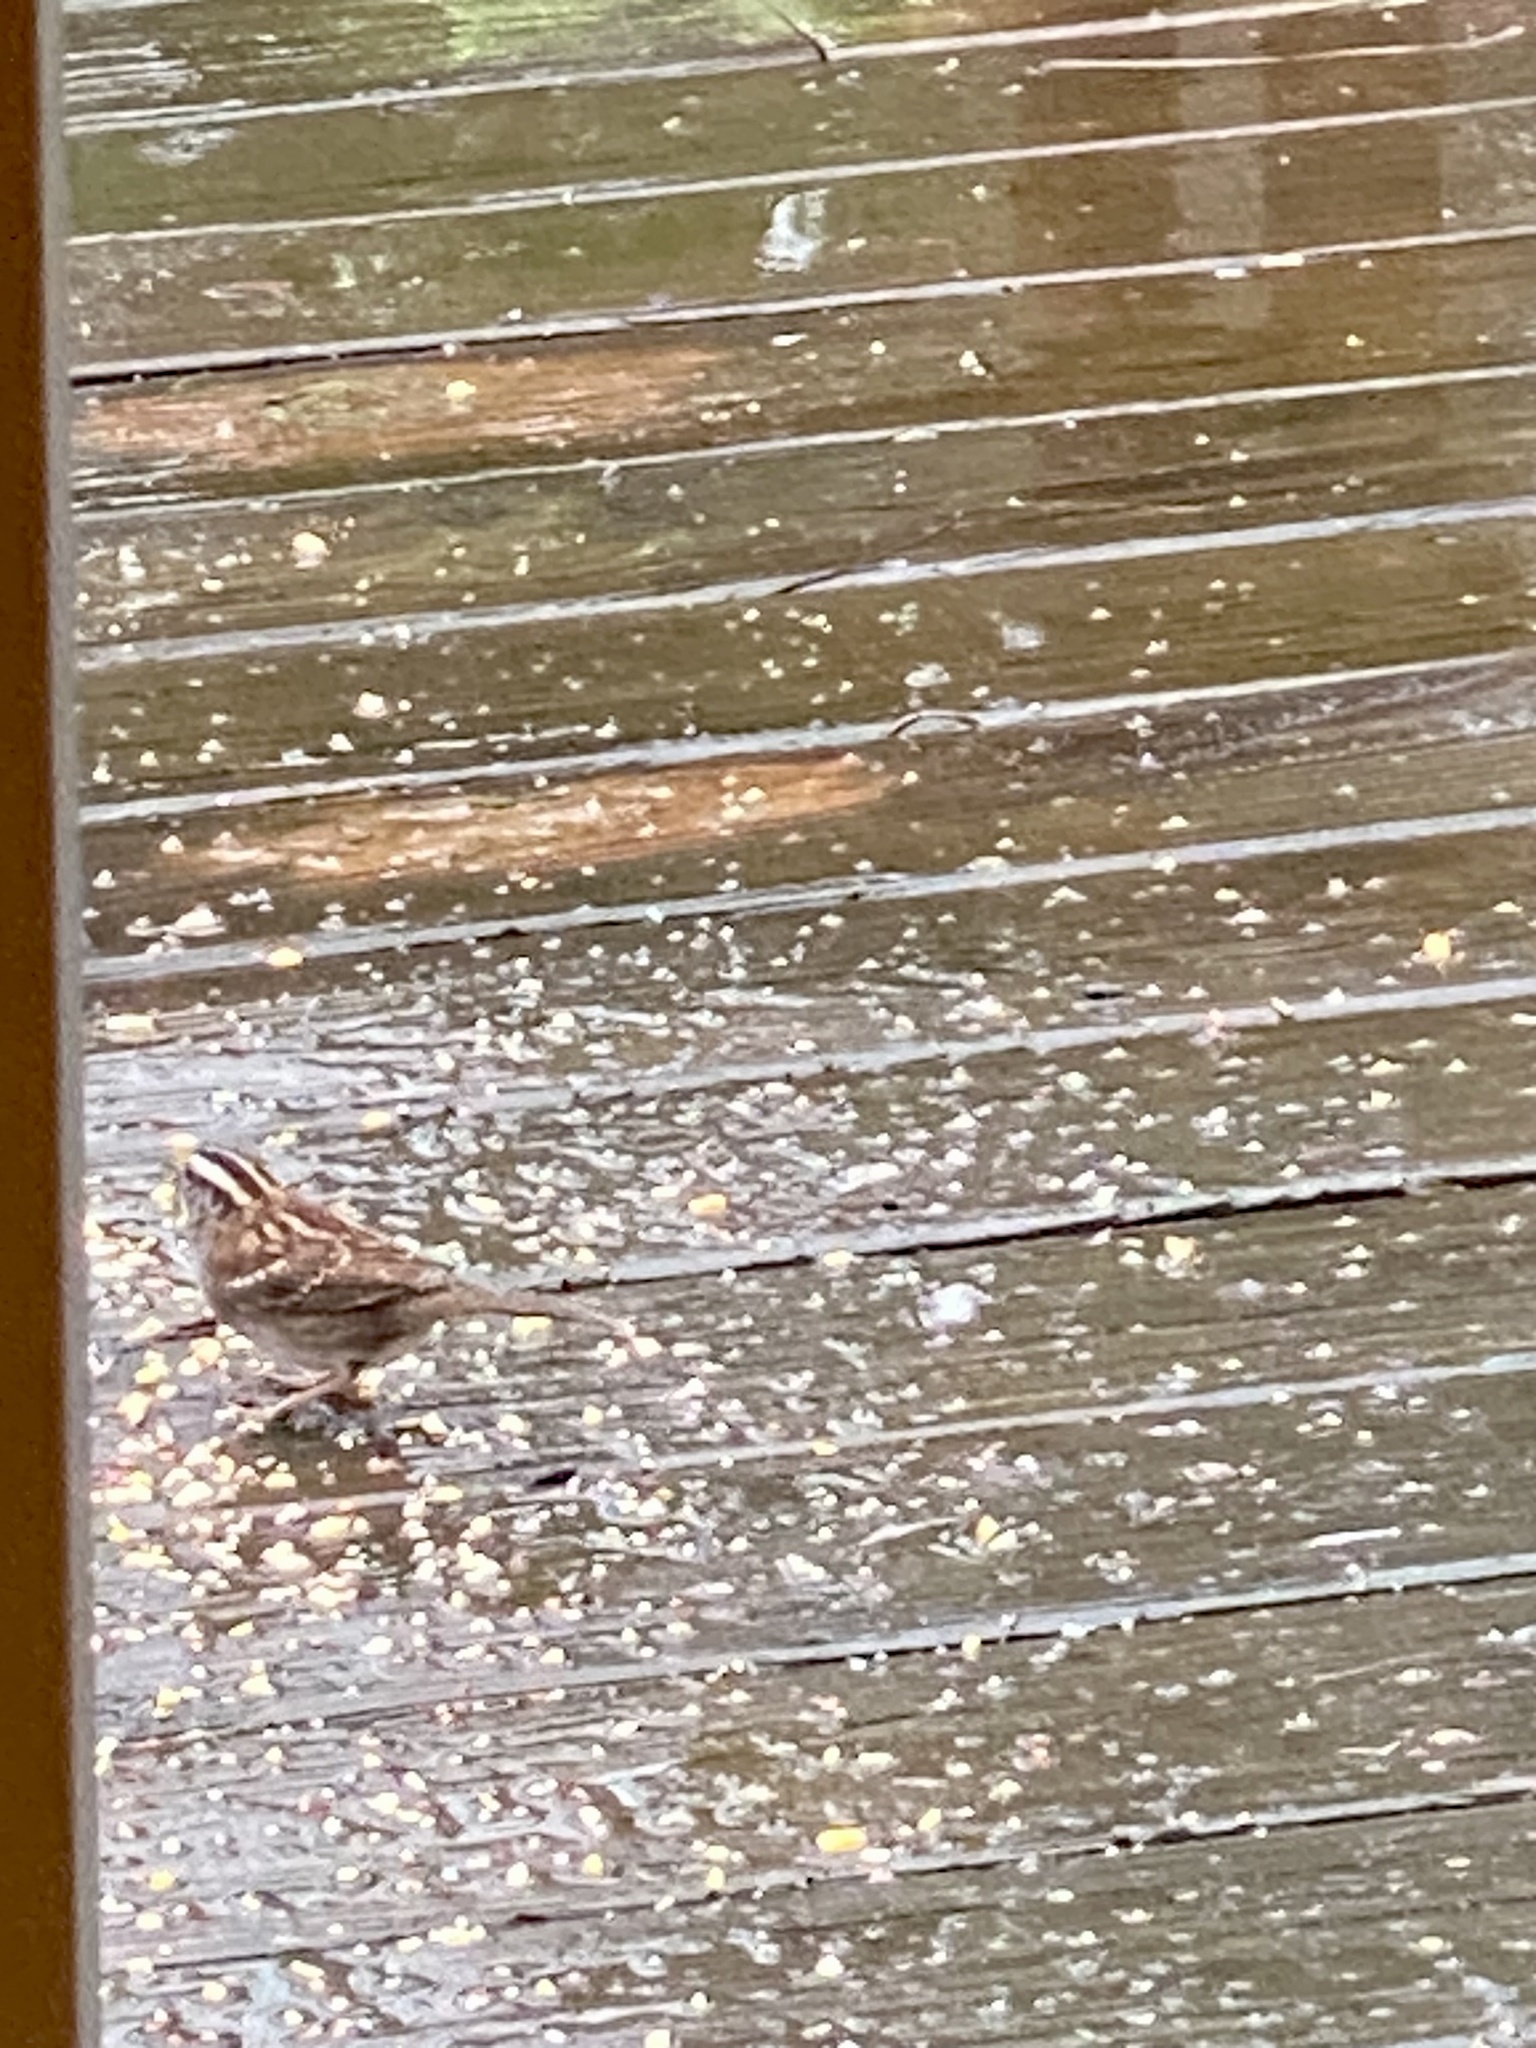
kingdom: Animalia
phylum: Chordata
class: Aves
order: Passeriformes
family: Passerellidae
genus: Zonotrichia
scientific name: Zonotrichia albicollis
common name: White-throated sparrow
